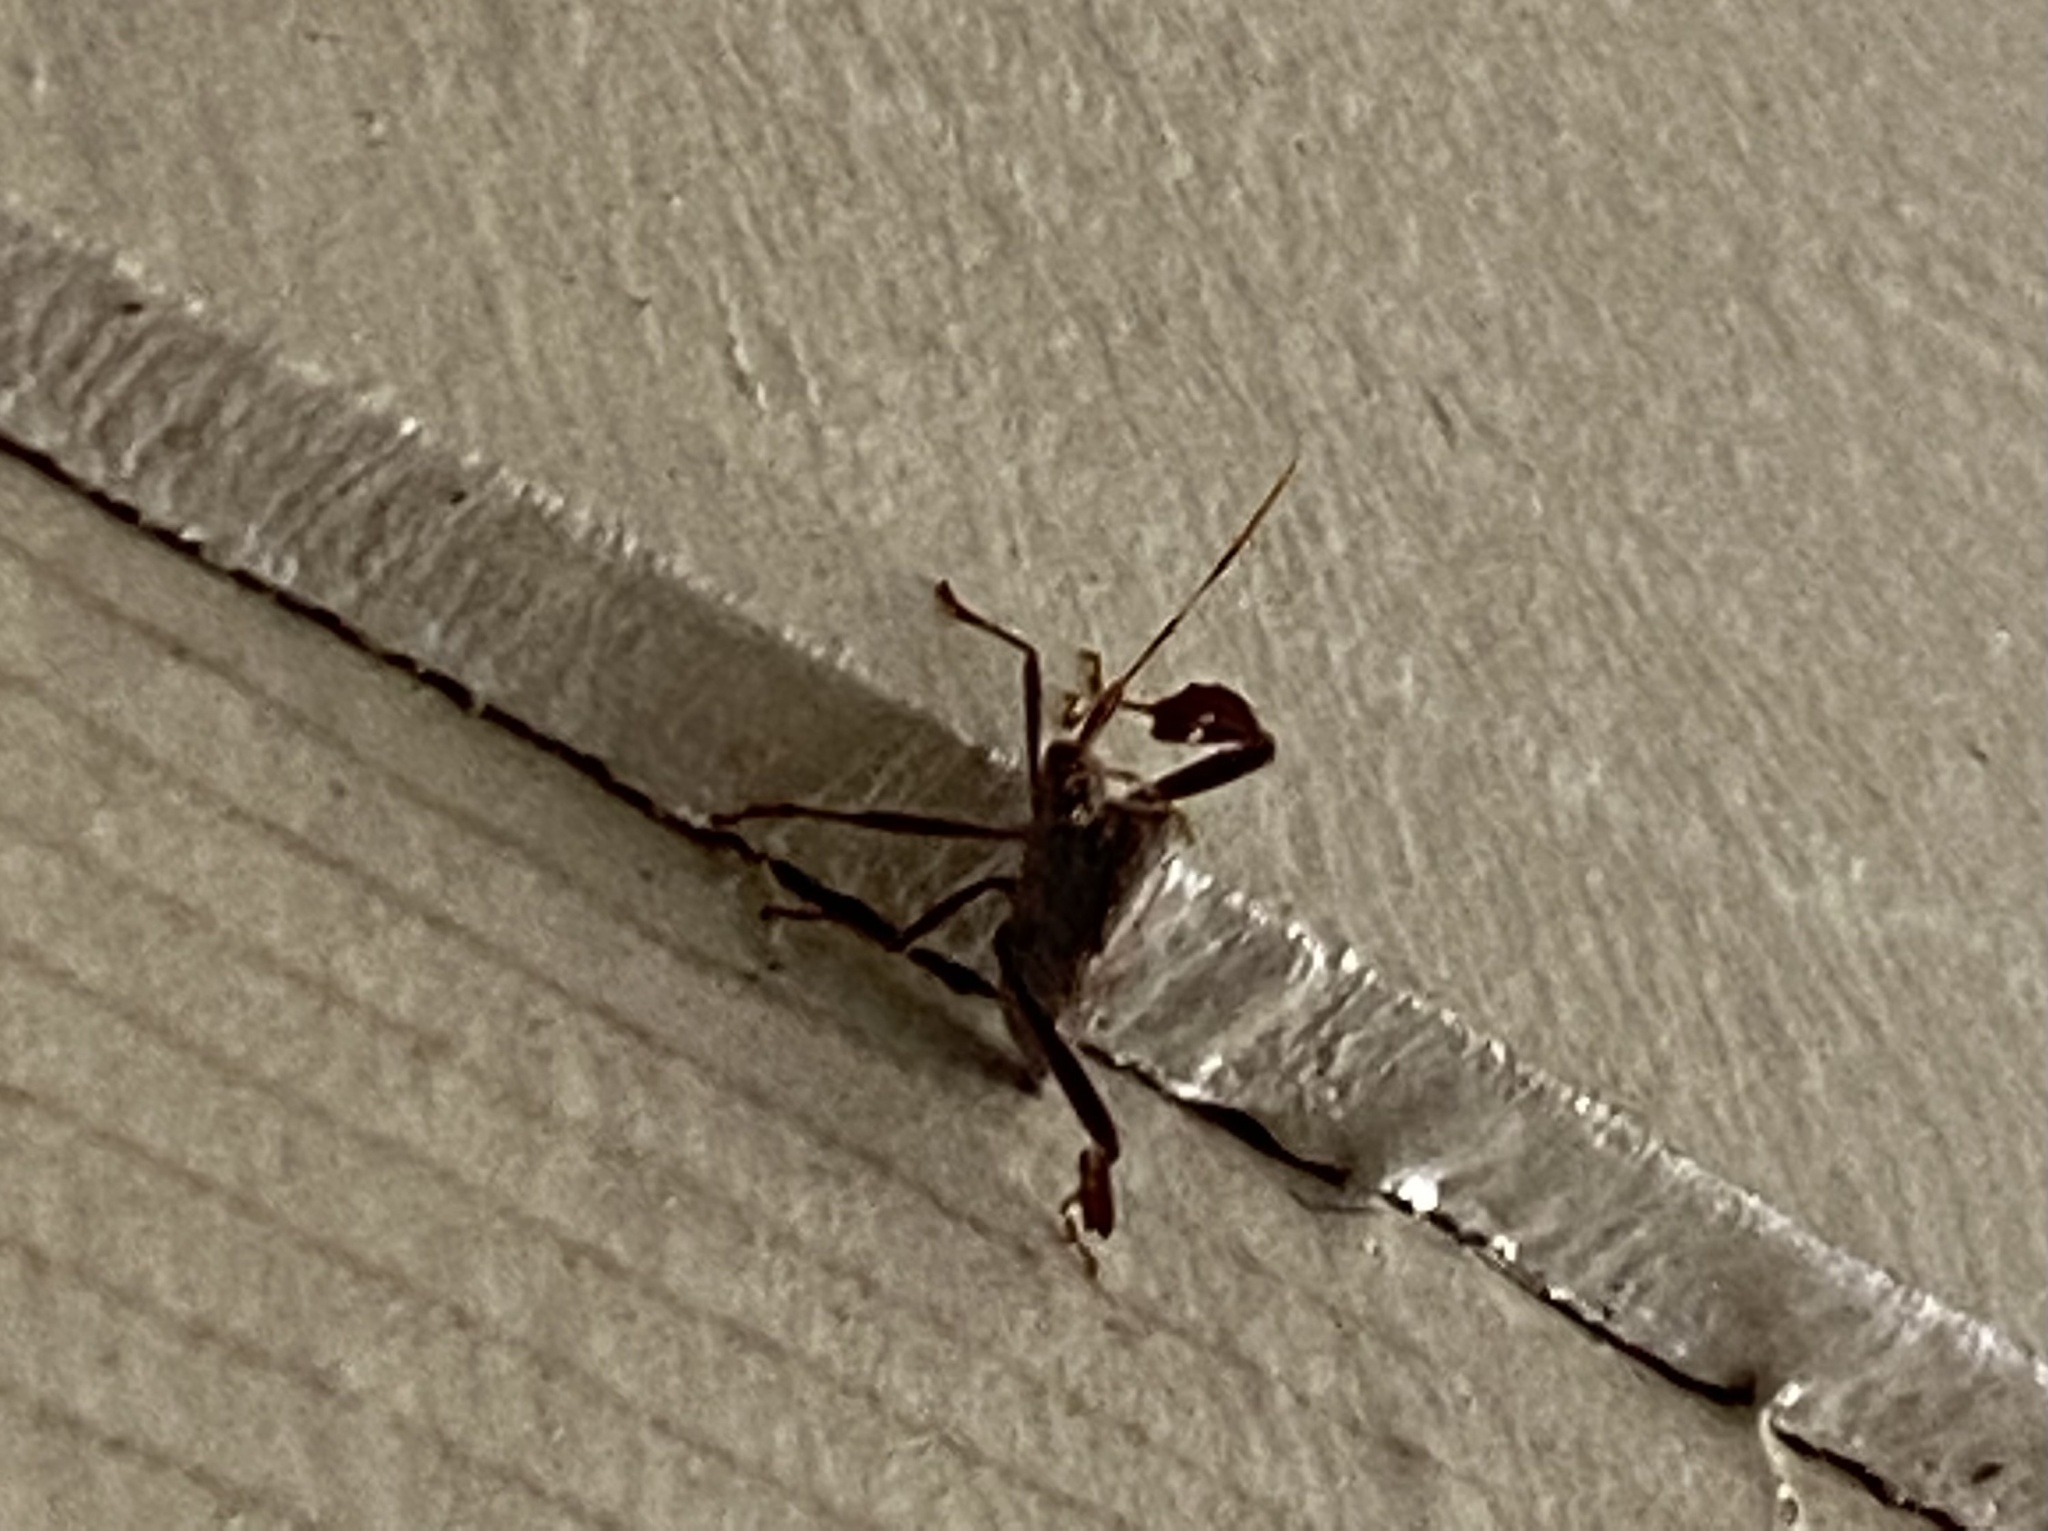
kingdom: Animalia
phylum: Arthropoda
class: Insecta
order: Hemiptera
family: Coreidae
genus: Leptoglossus
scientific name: Leptoglossus oppositus
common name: Northern leaf-footed bug
